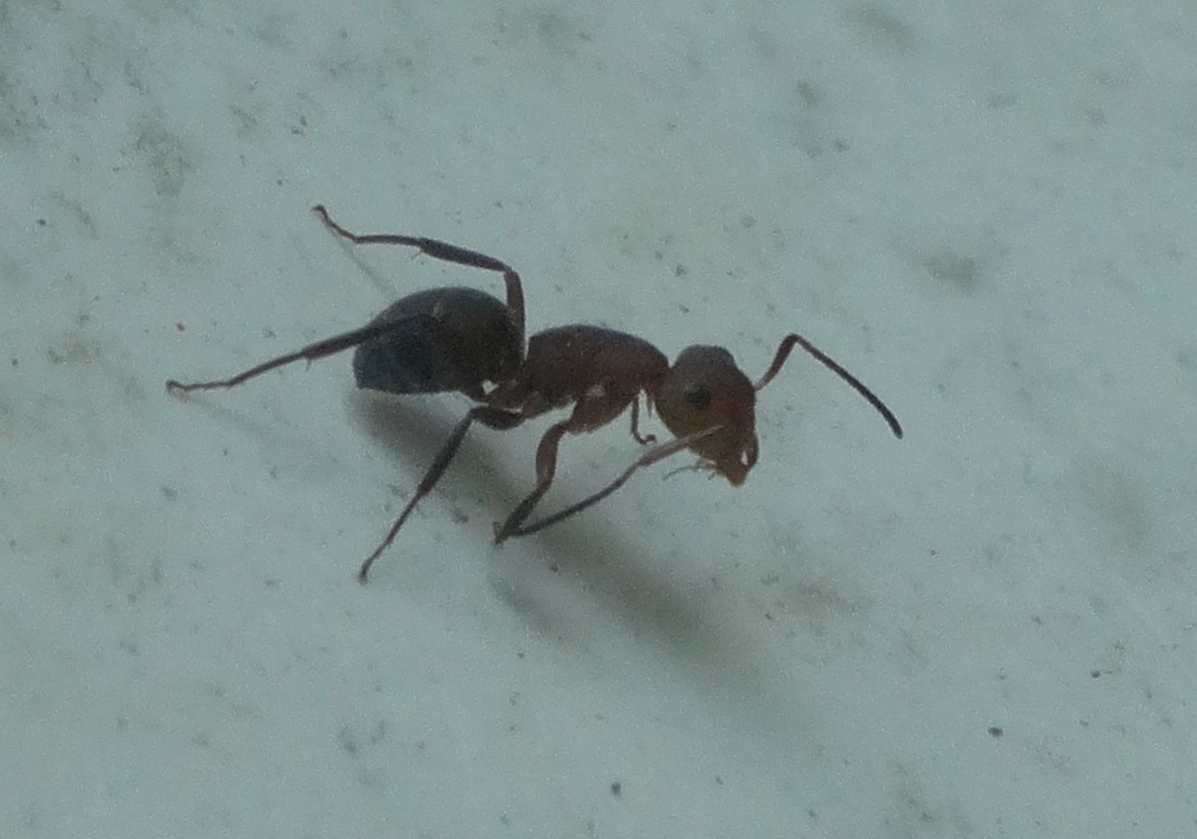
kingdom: Animalia
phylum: Arthropoda
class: Insecta
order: Hymenoptera
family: Formicidae
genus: Camponotus
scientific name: Camponotus rectangularis
